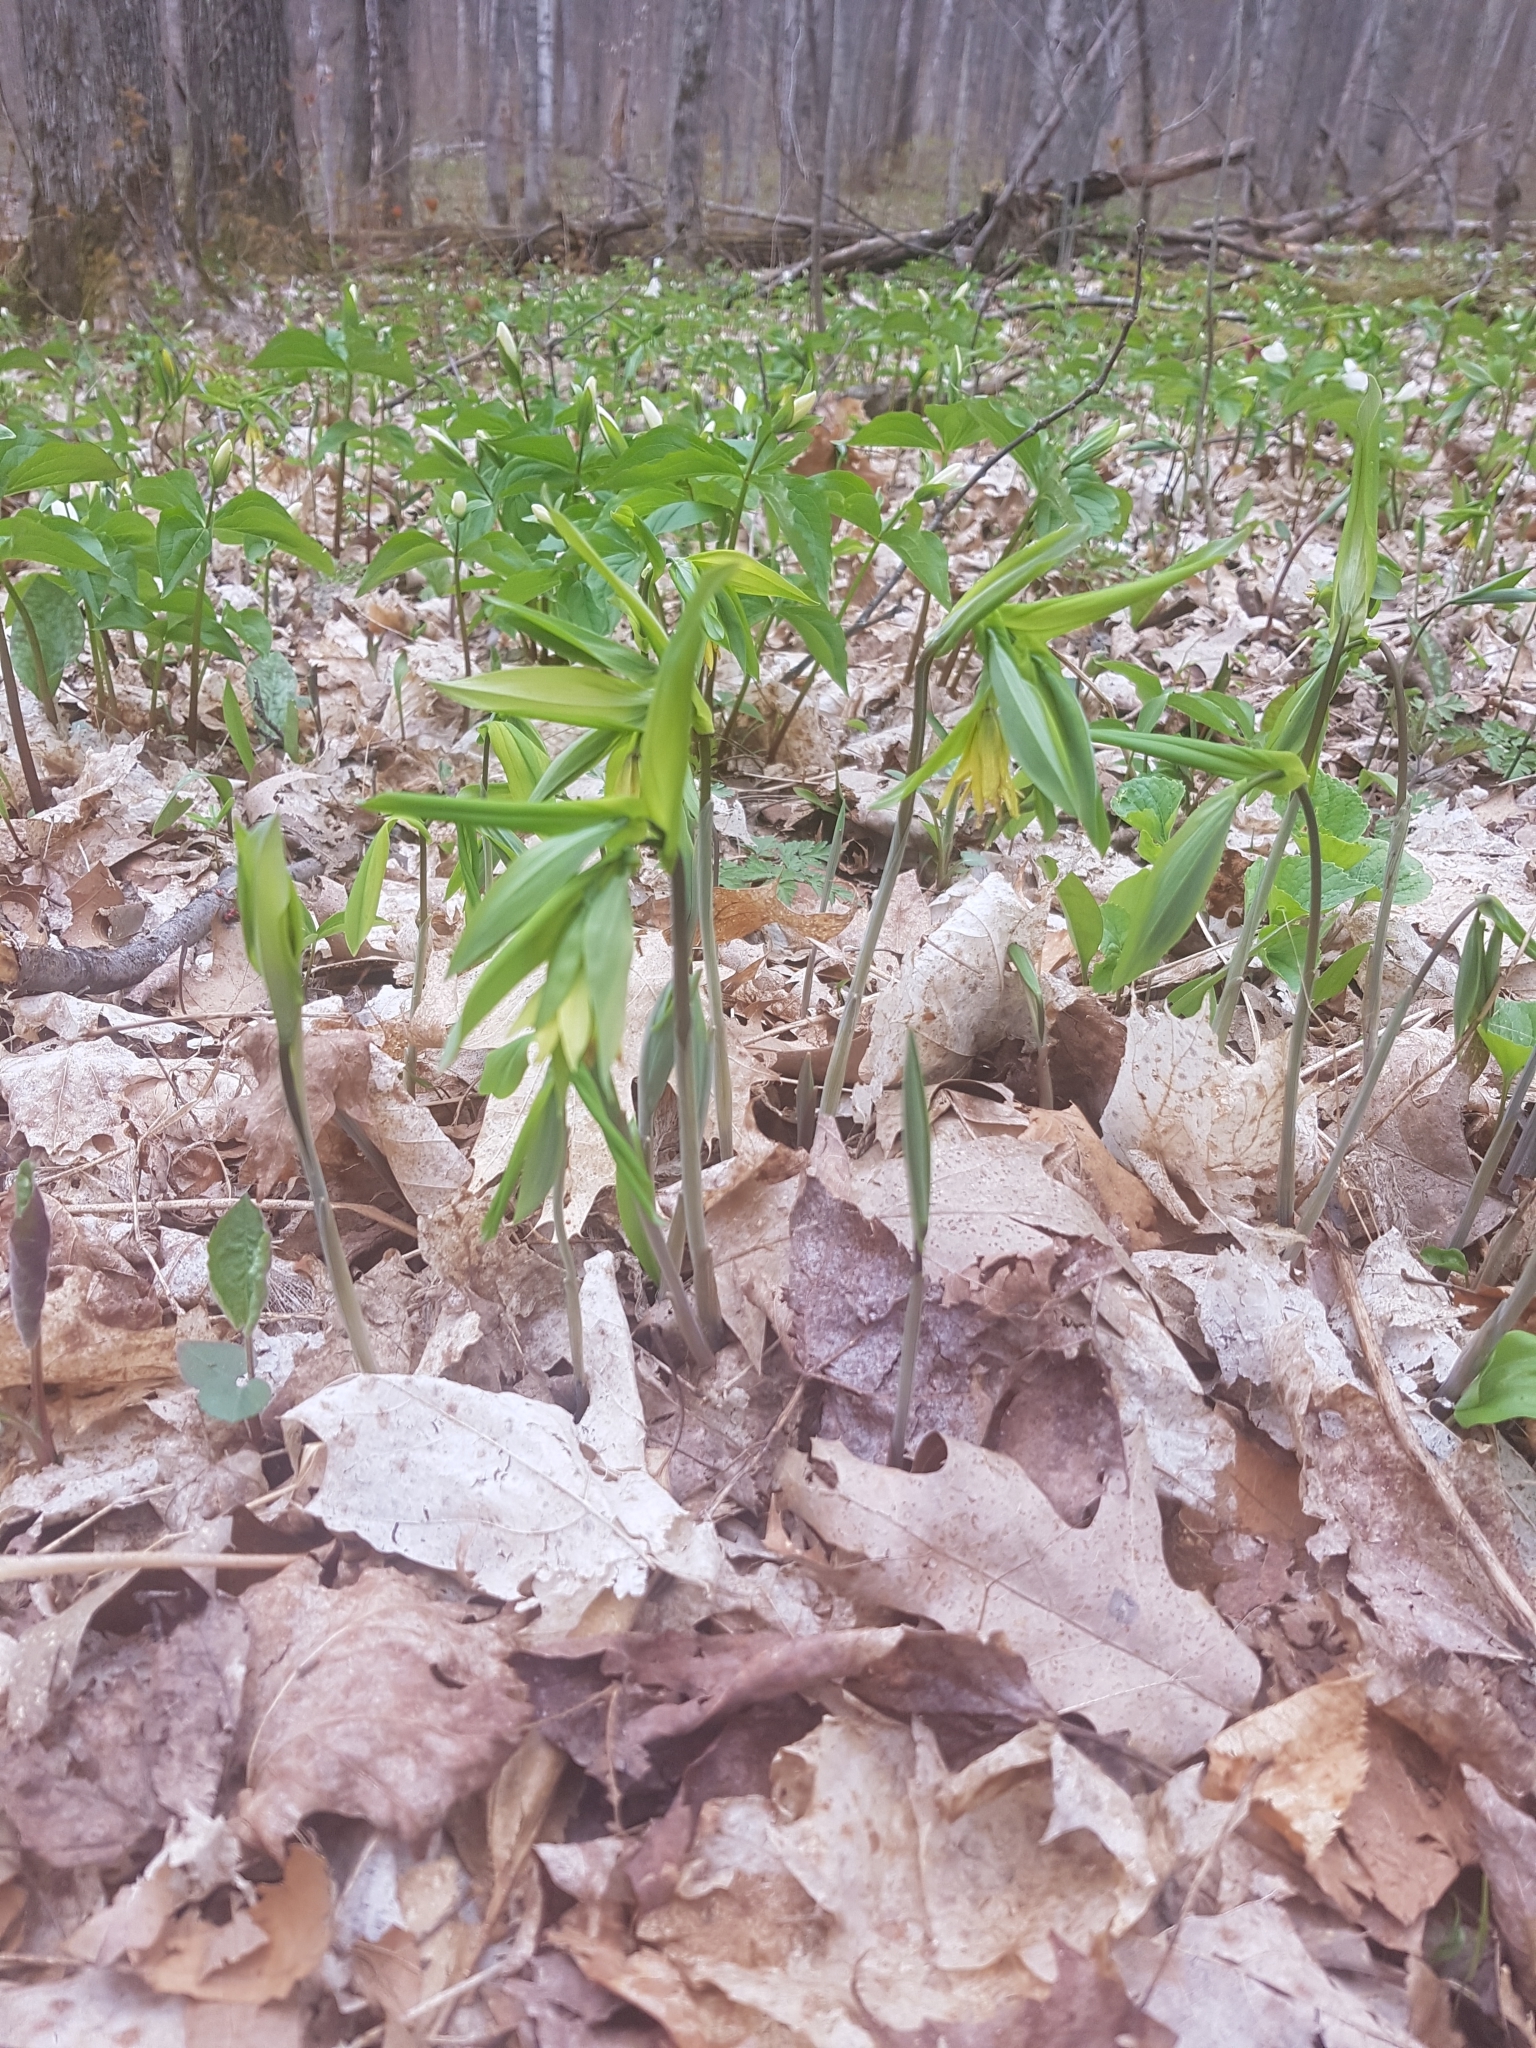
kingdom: Plantae
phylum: Tracheophyta
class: Liliopsida
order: Liliales
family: Colchicaceae
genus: Uvularia
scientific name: Uvularia grandiflora
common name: Bellwort
